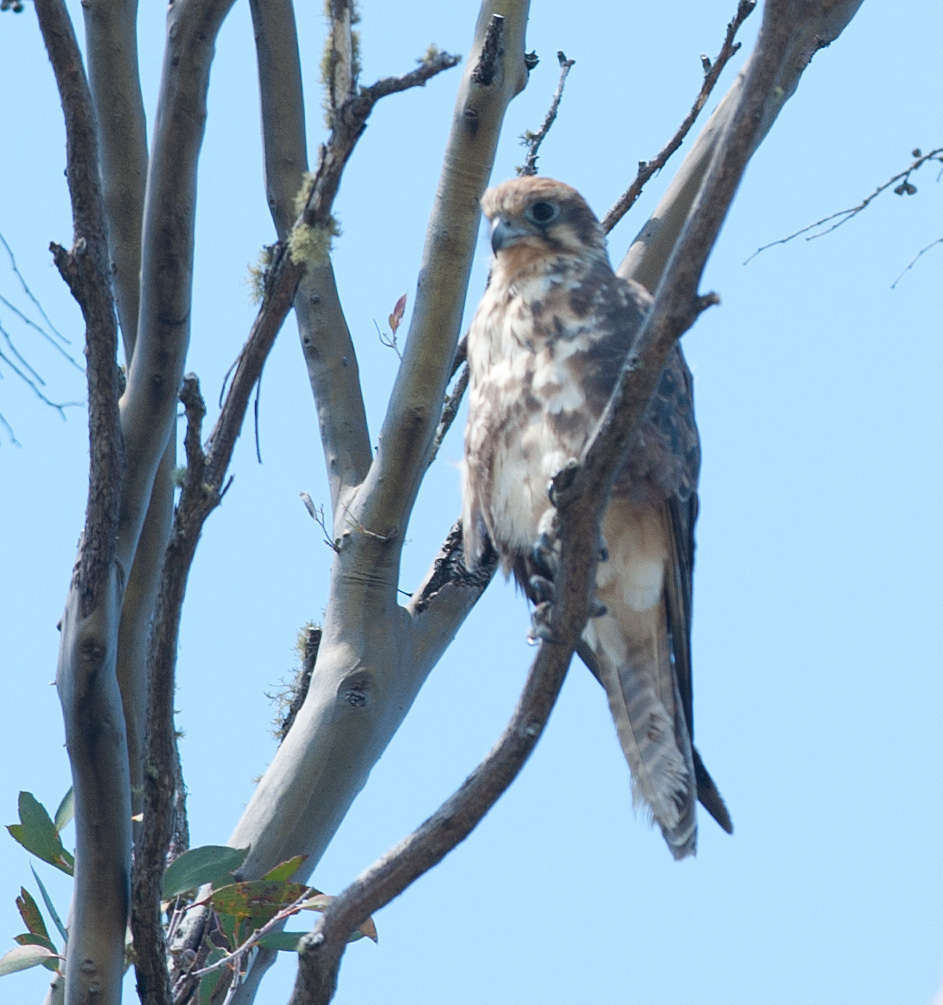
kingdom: Animalia
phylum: Chordata
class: Aves
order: Falconiformes
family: Falconidae
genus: Falco
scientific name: Falco berigora
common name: Brown falcon
